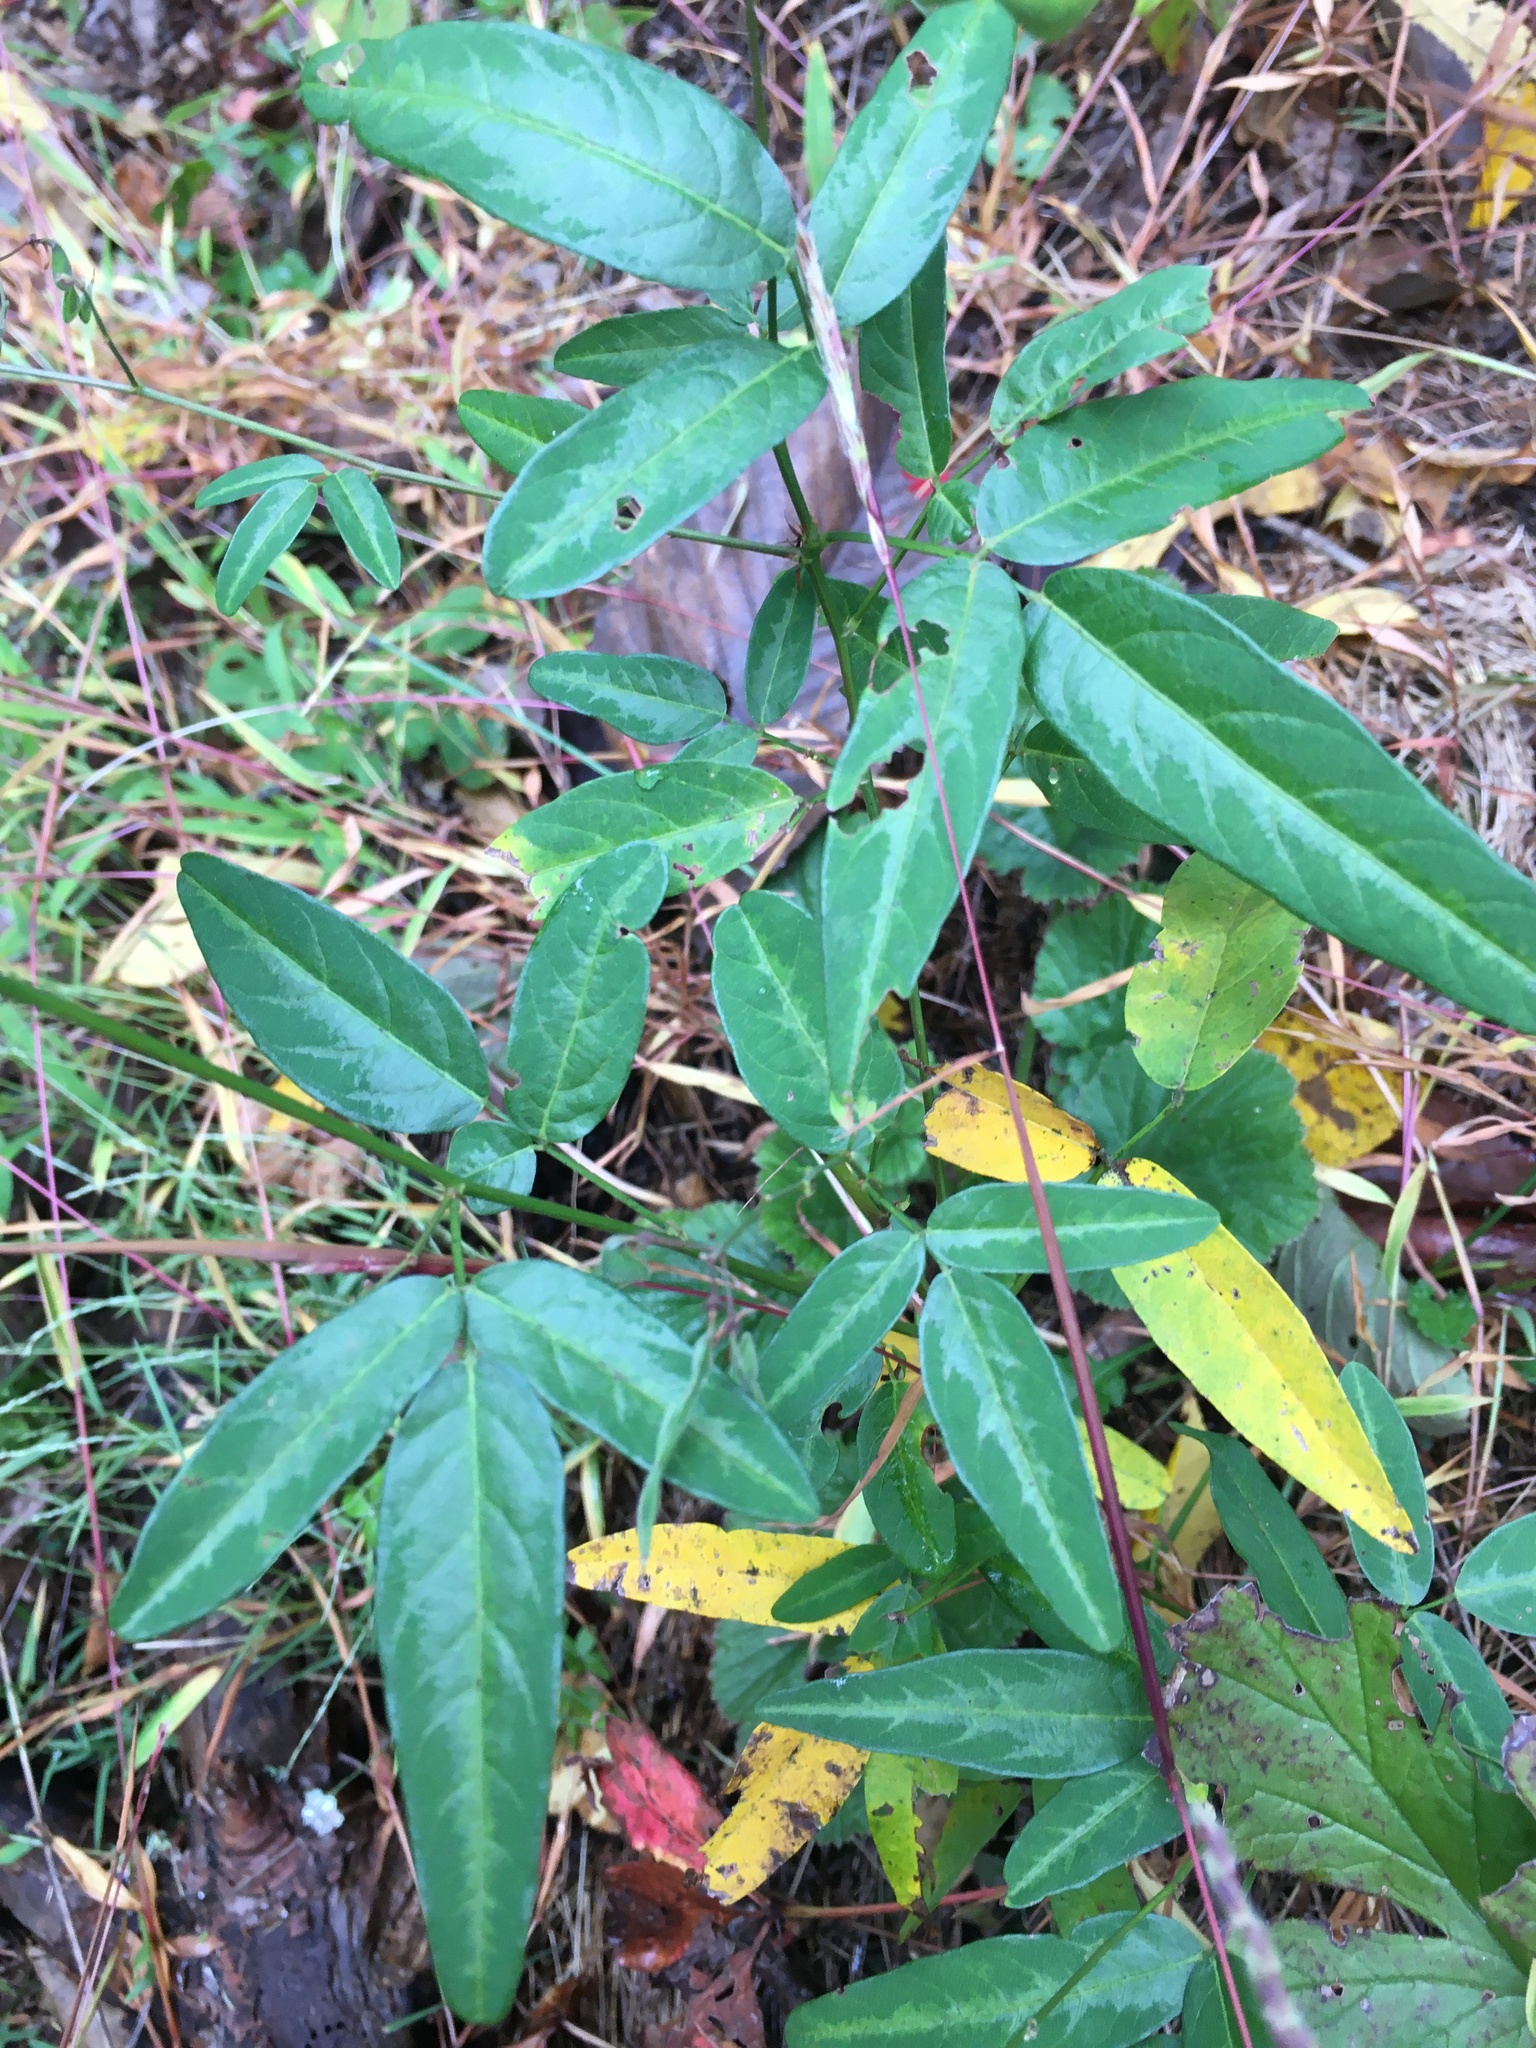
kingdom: Plantae
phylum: Tracheophyta
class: Magnoliopsida
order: Fabales
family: Fabaceae
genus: Desmodium
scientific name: Desmodium paniculatum
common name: Panicled tick-clover
